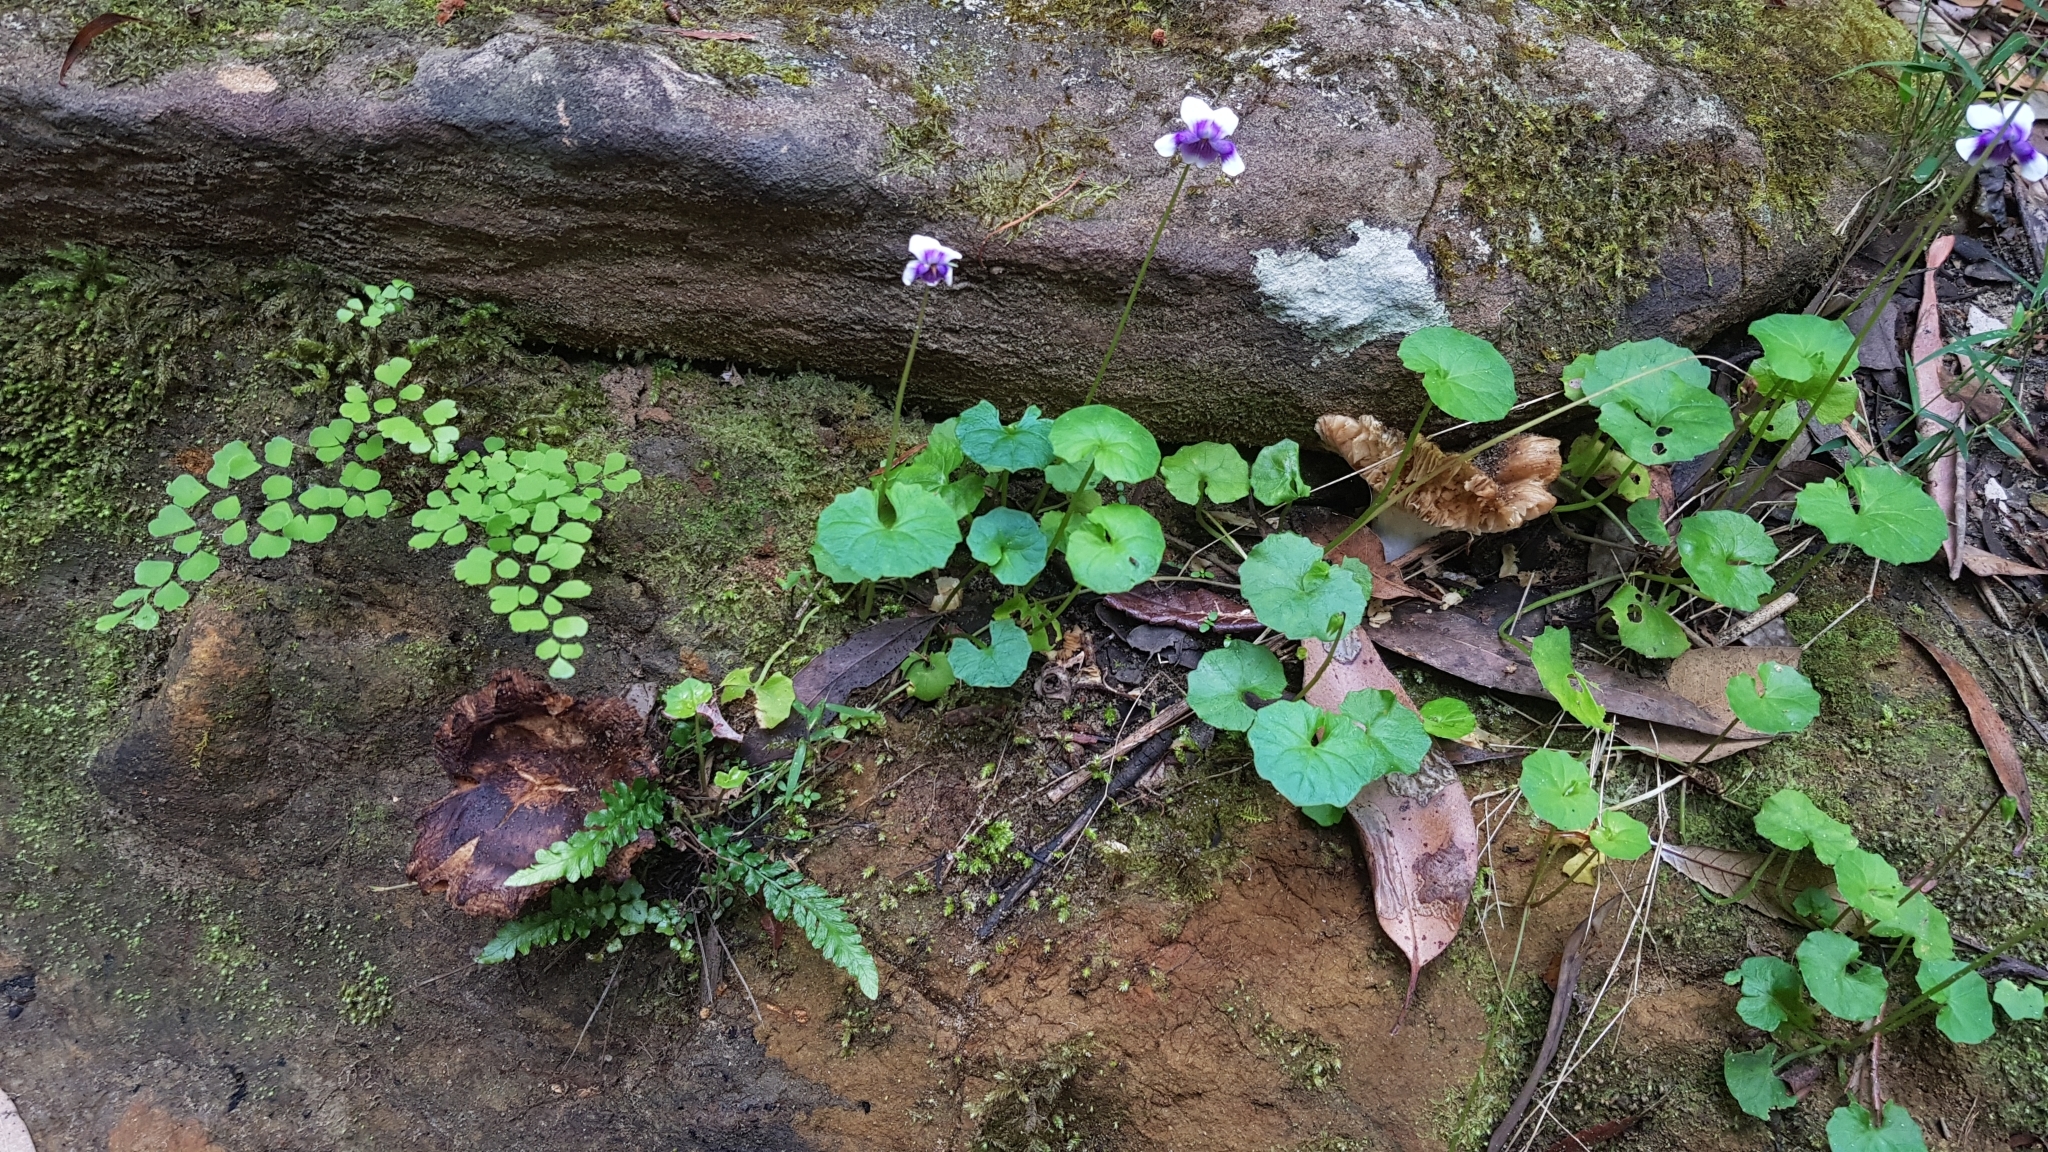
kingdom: Plantae
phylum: Tracheophyta
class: Polypodiopsida
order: Polypodiales
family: Pteridaceae
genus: Adiantum
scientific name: Adiantum aethiopicum
